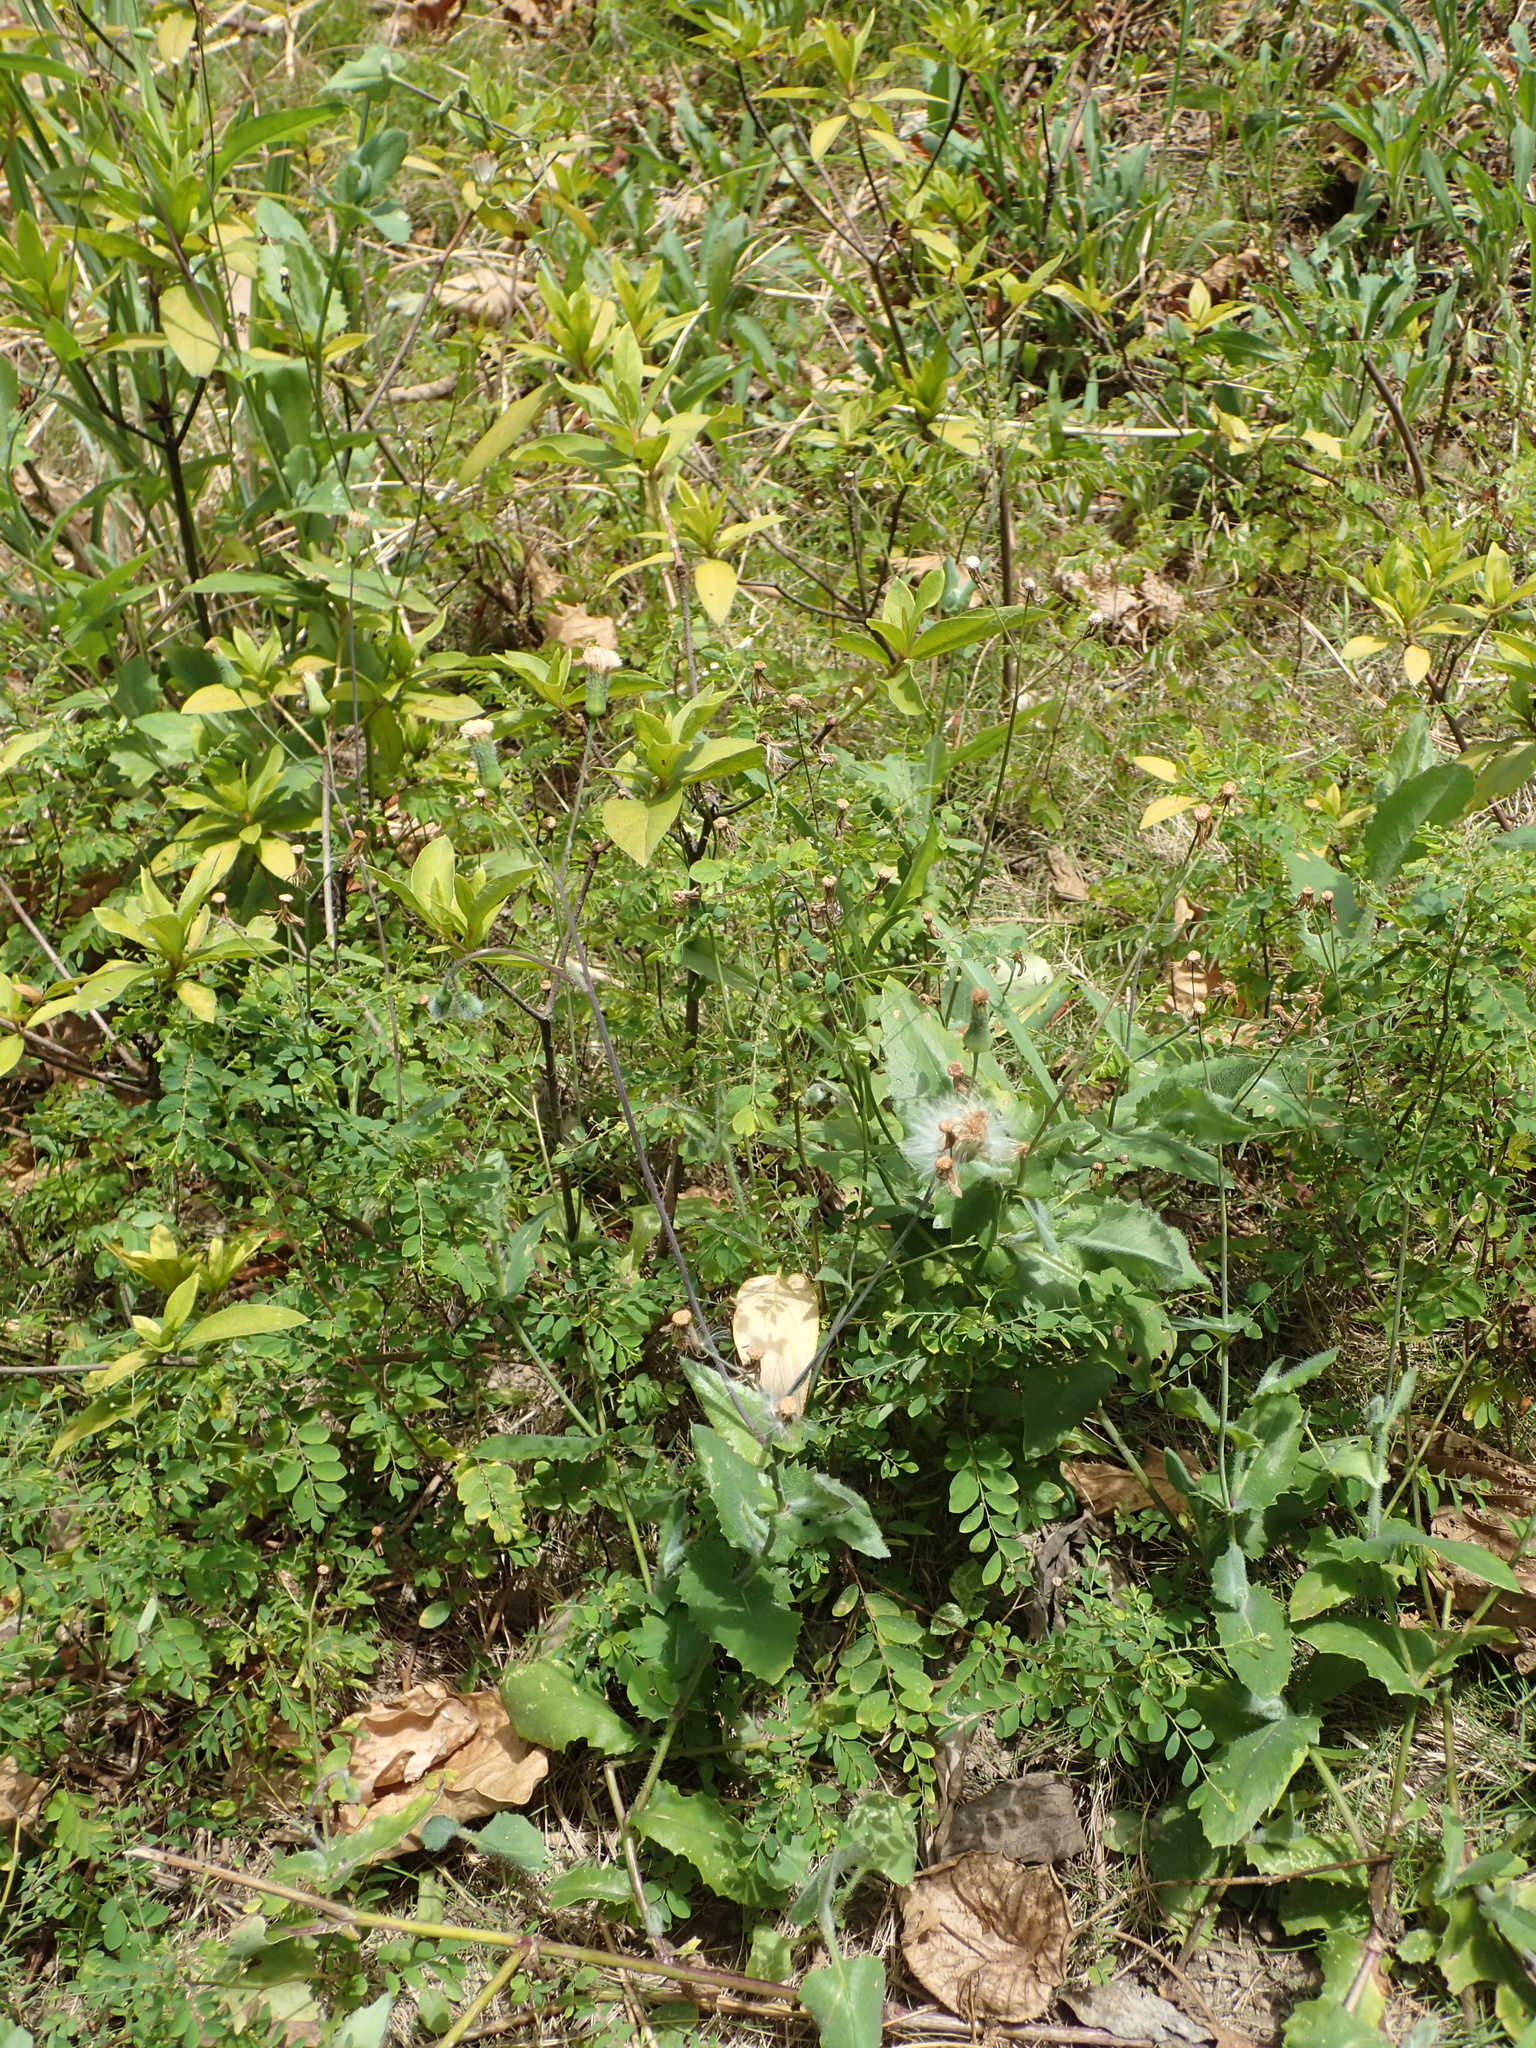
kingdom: Plantae
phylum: Tracheophyta
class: Magnoliopsida
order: Asterales
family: Asteraceae
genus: Emilia
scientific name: Emilia praetermissa
